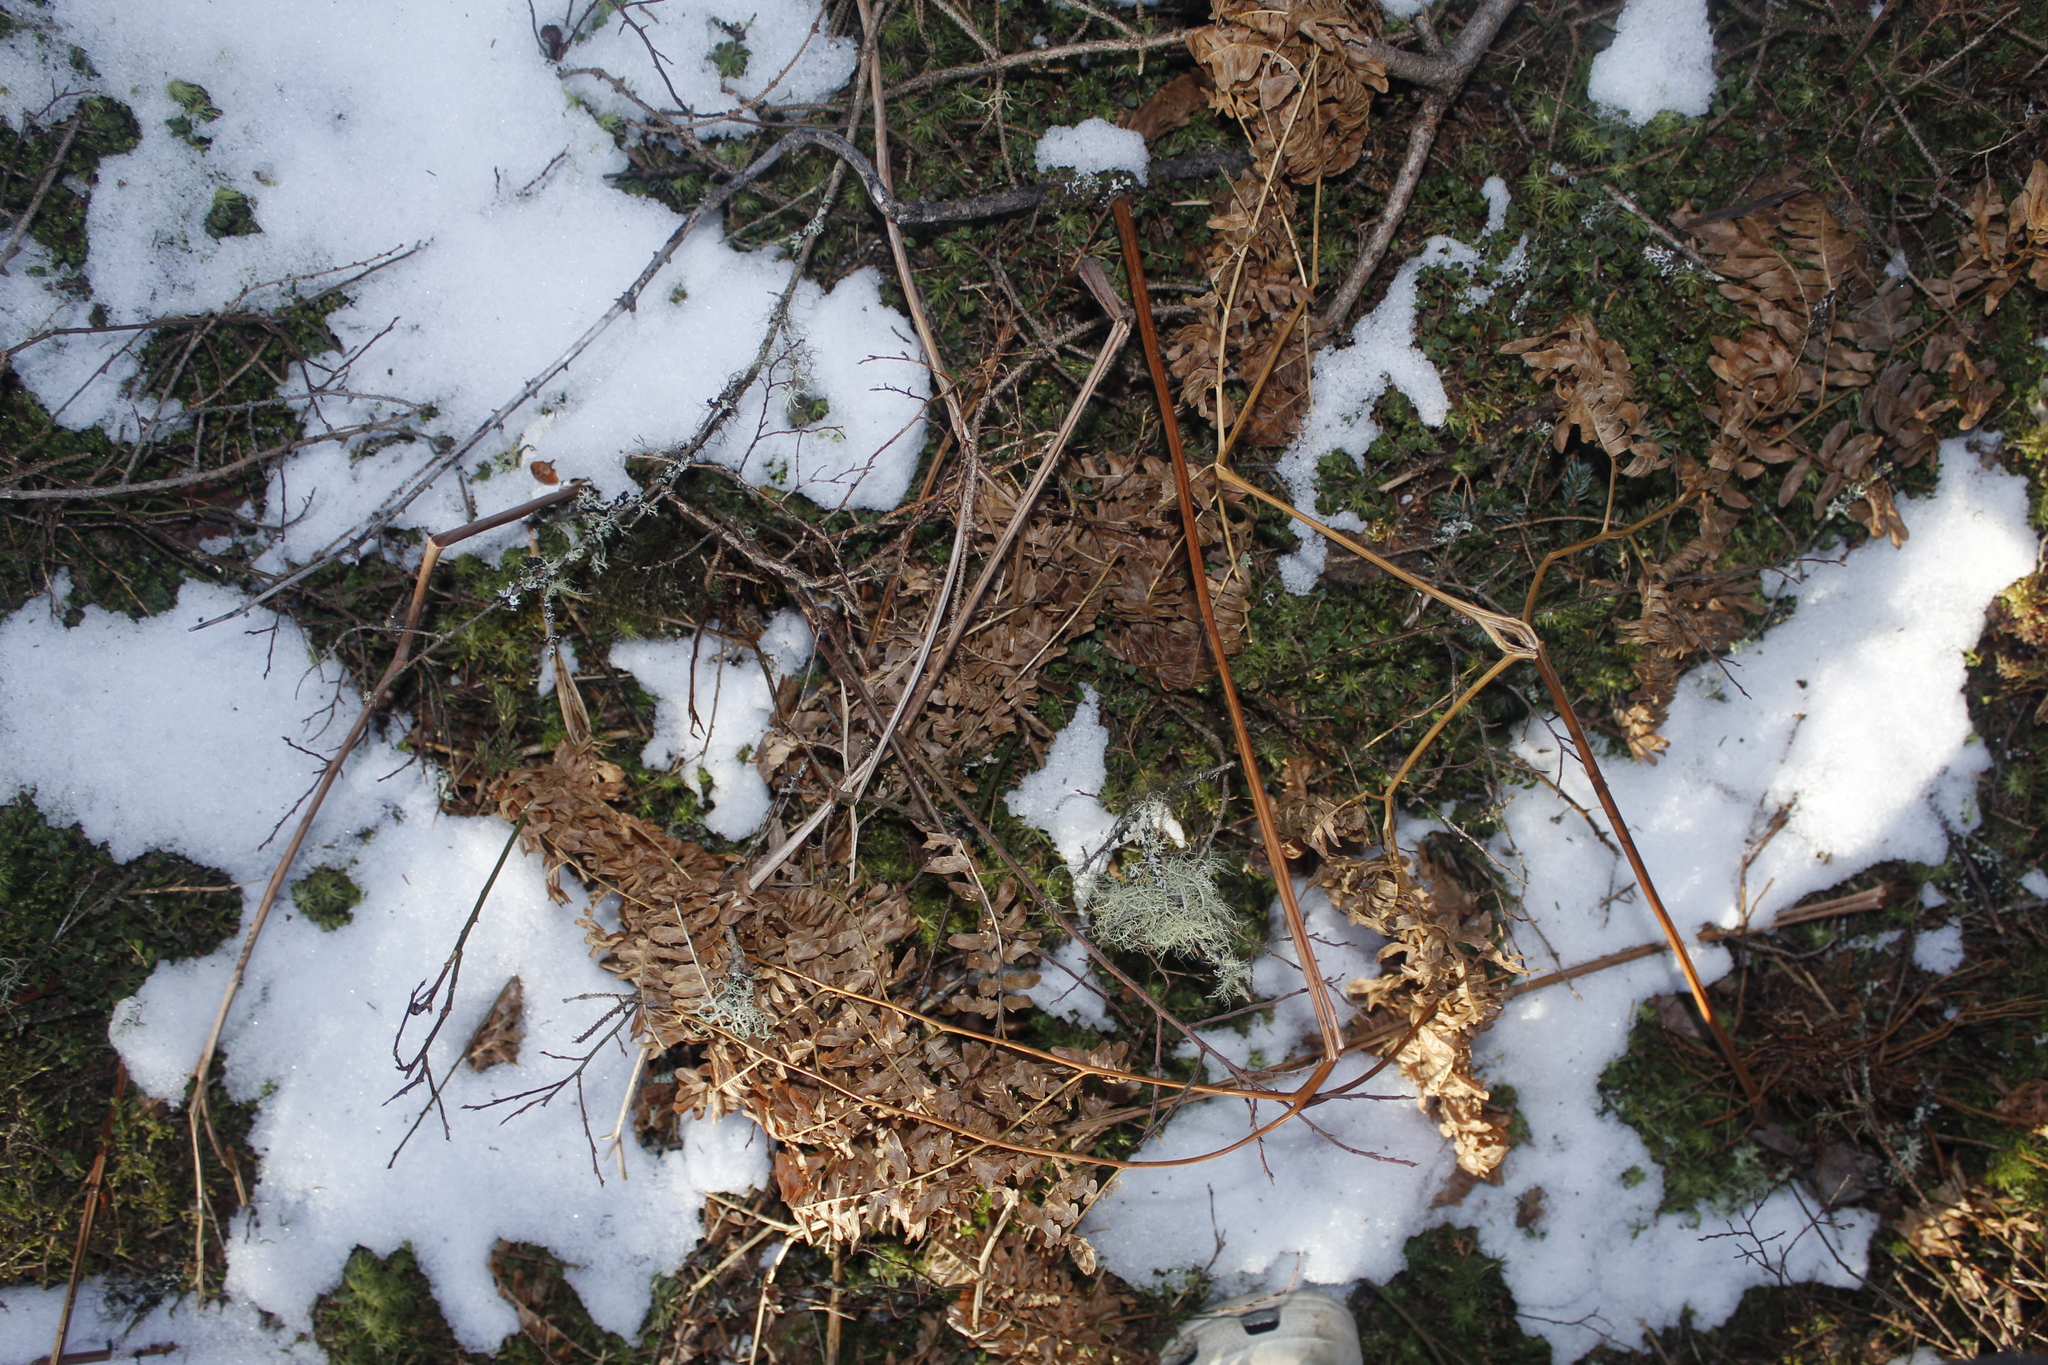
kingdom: Plantae
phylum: Tracheophyta
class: Polypodiopsida
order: Polypodiales
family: Dennstaedtiaceae
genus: Pteridium
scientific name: Pteridium aquilinum
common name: Bracken
